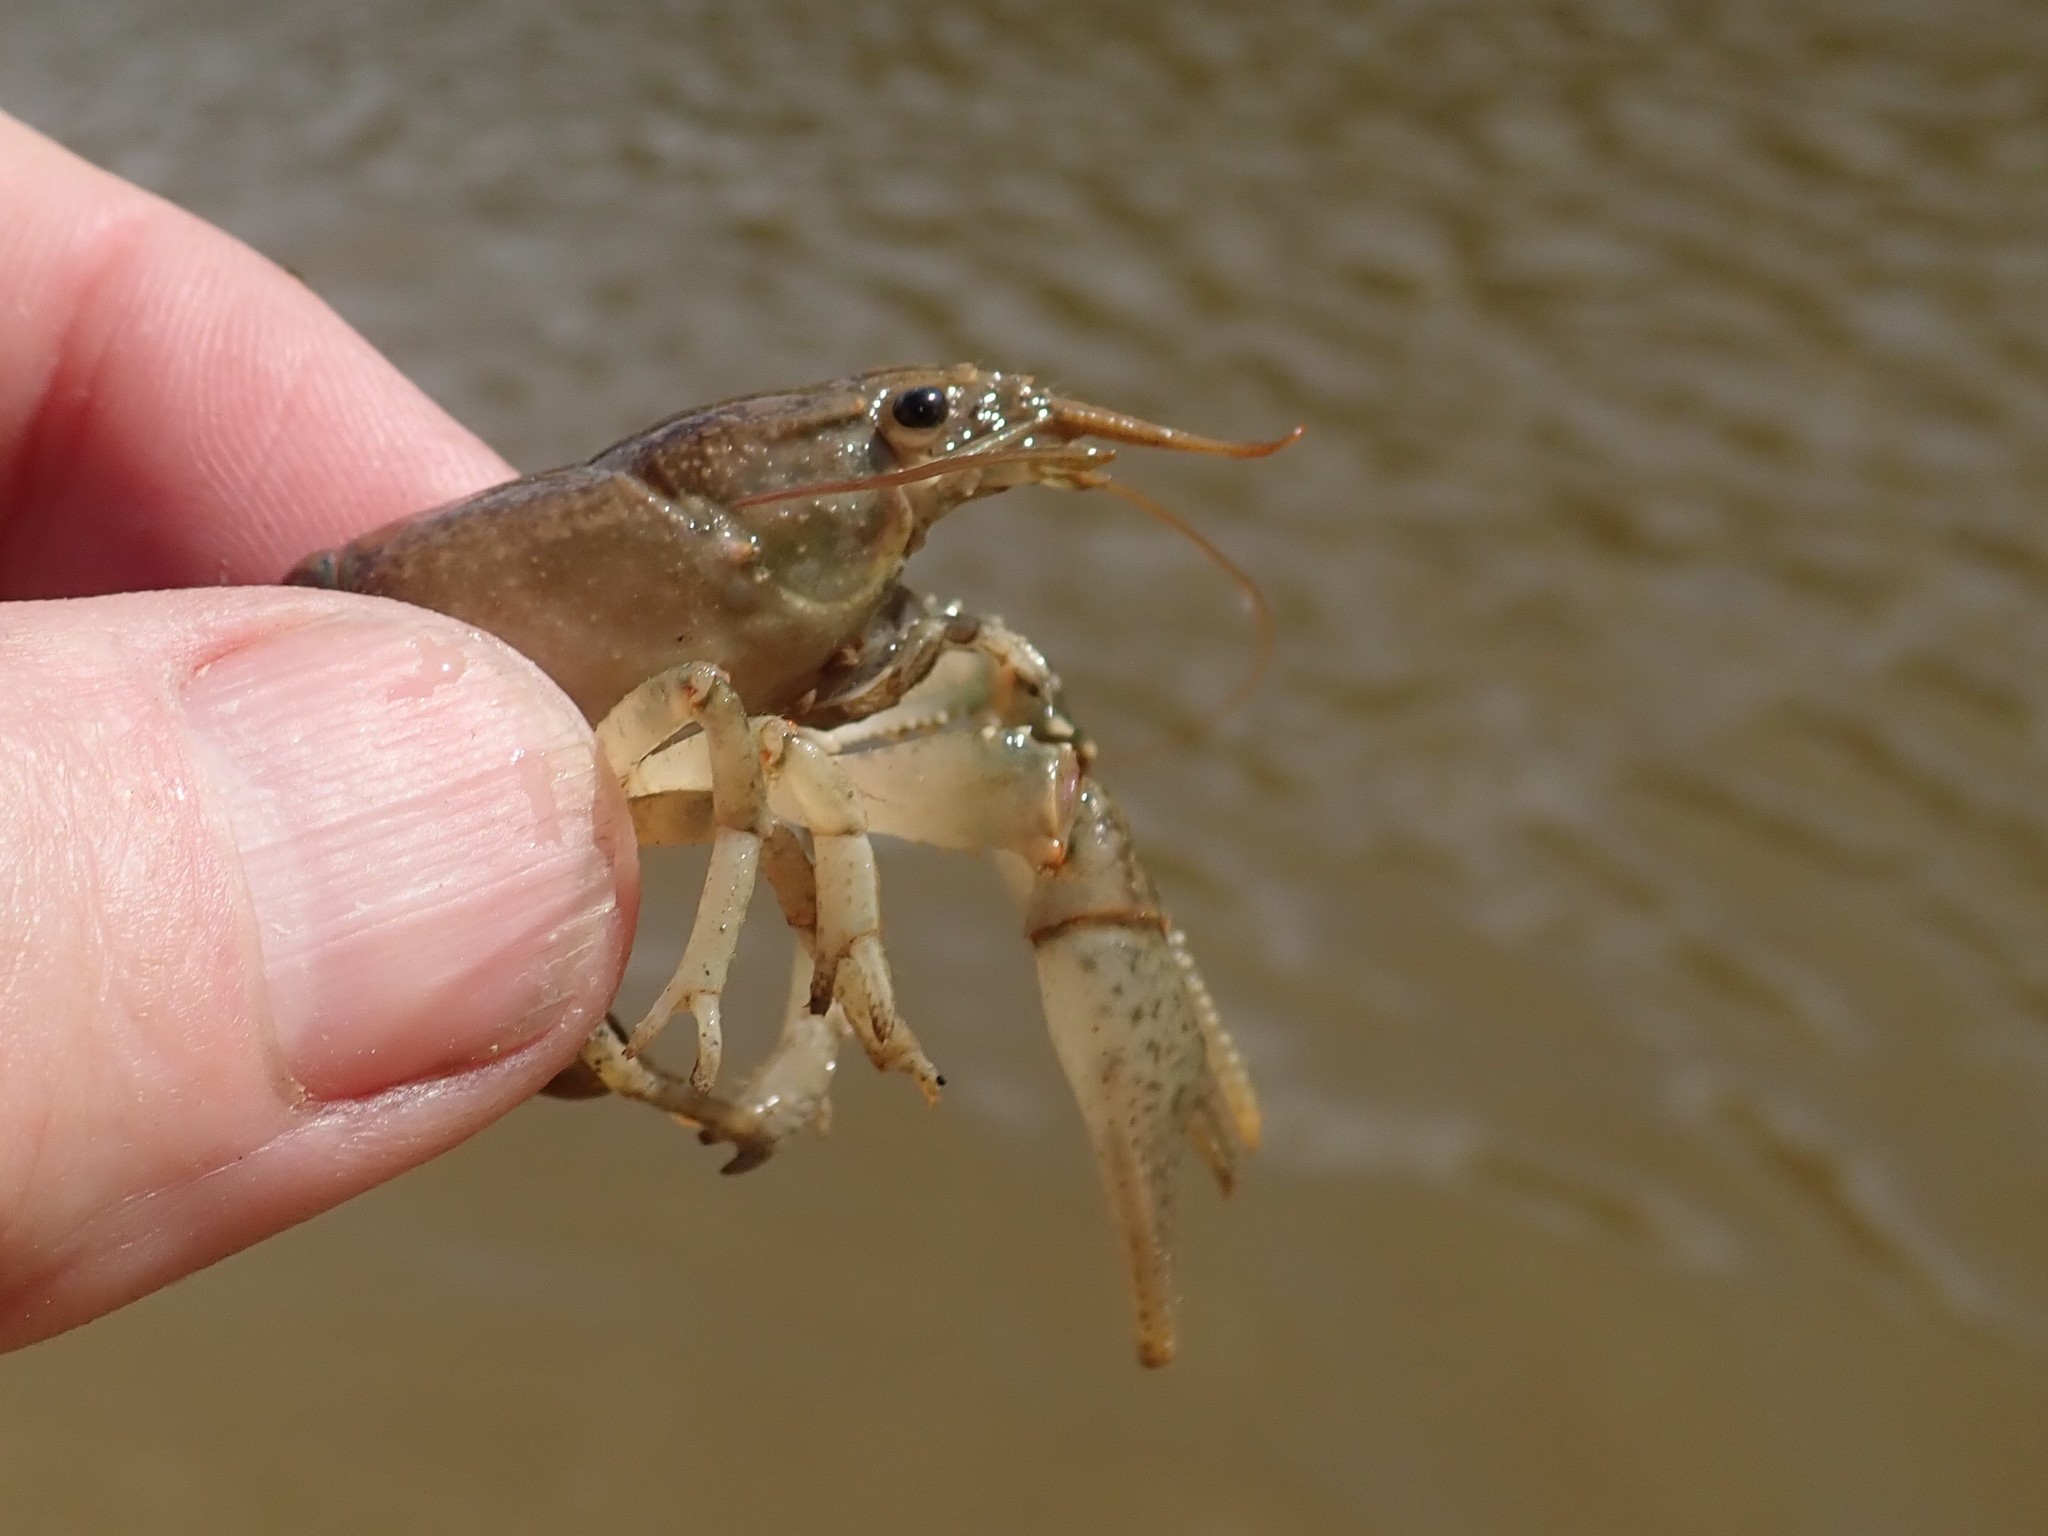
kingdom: Animalia
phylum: Arthropoda
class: Malacostraca
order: Decapoda
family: Cambaridae
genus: Faxonius
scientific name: Faxonius virilis
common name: Virile crayfish
